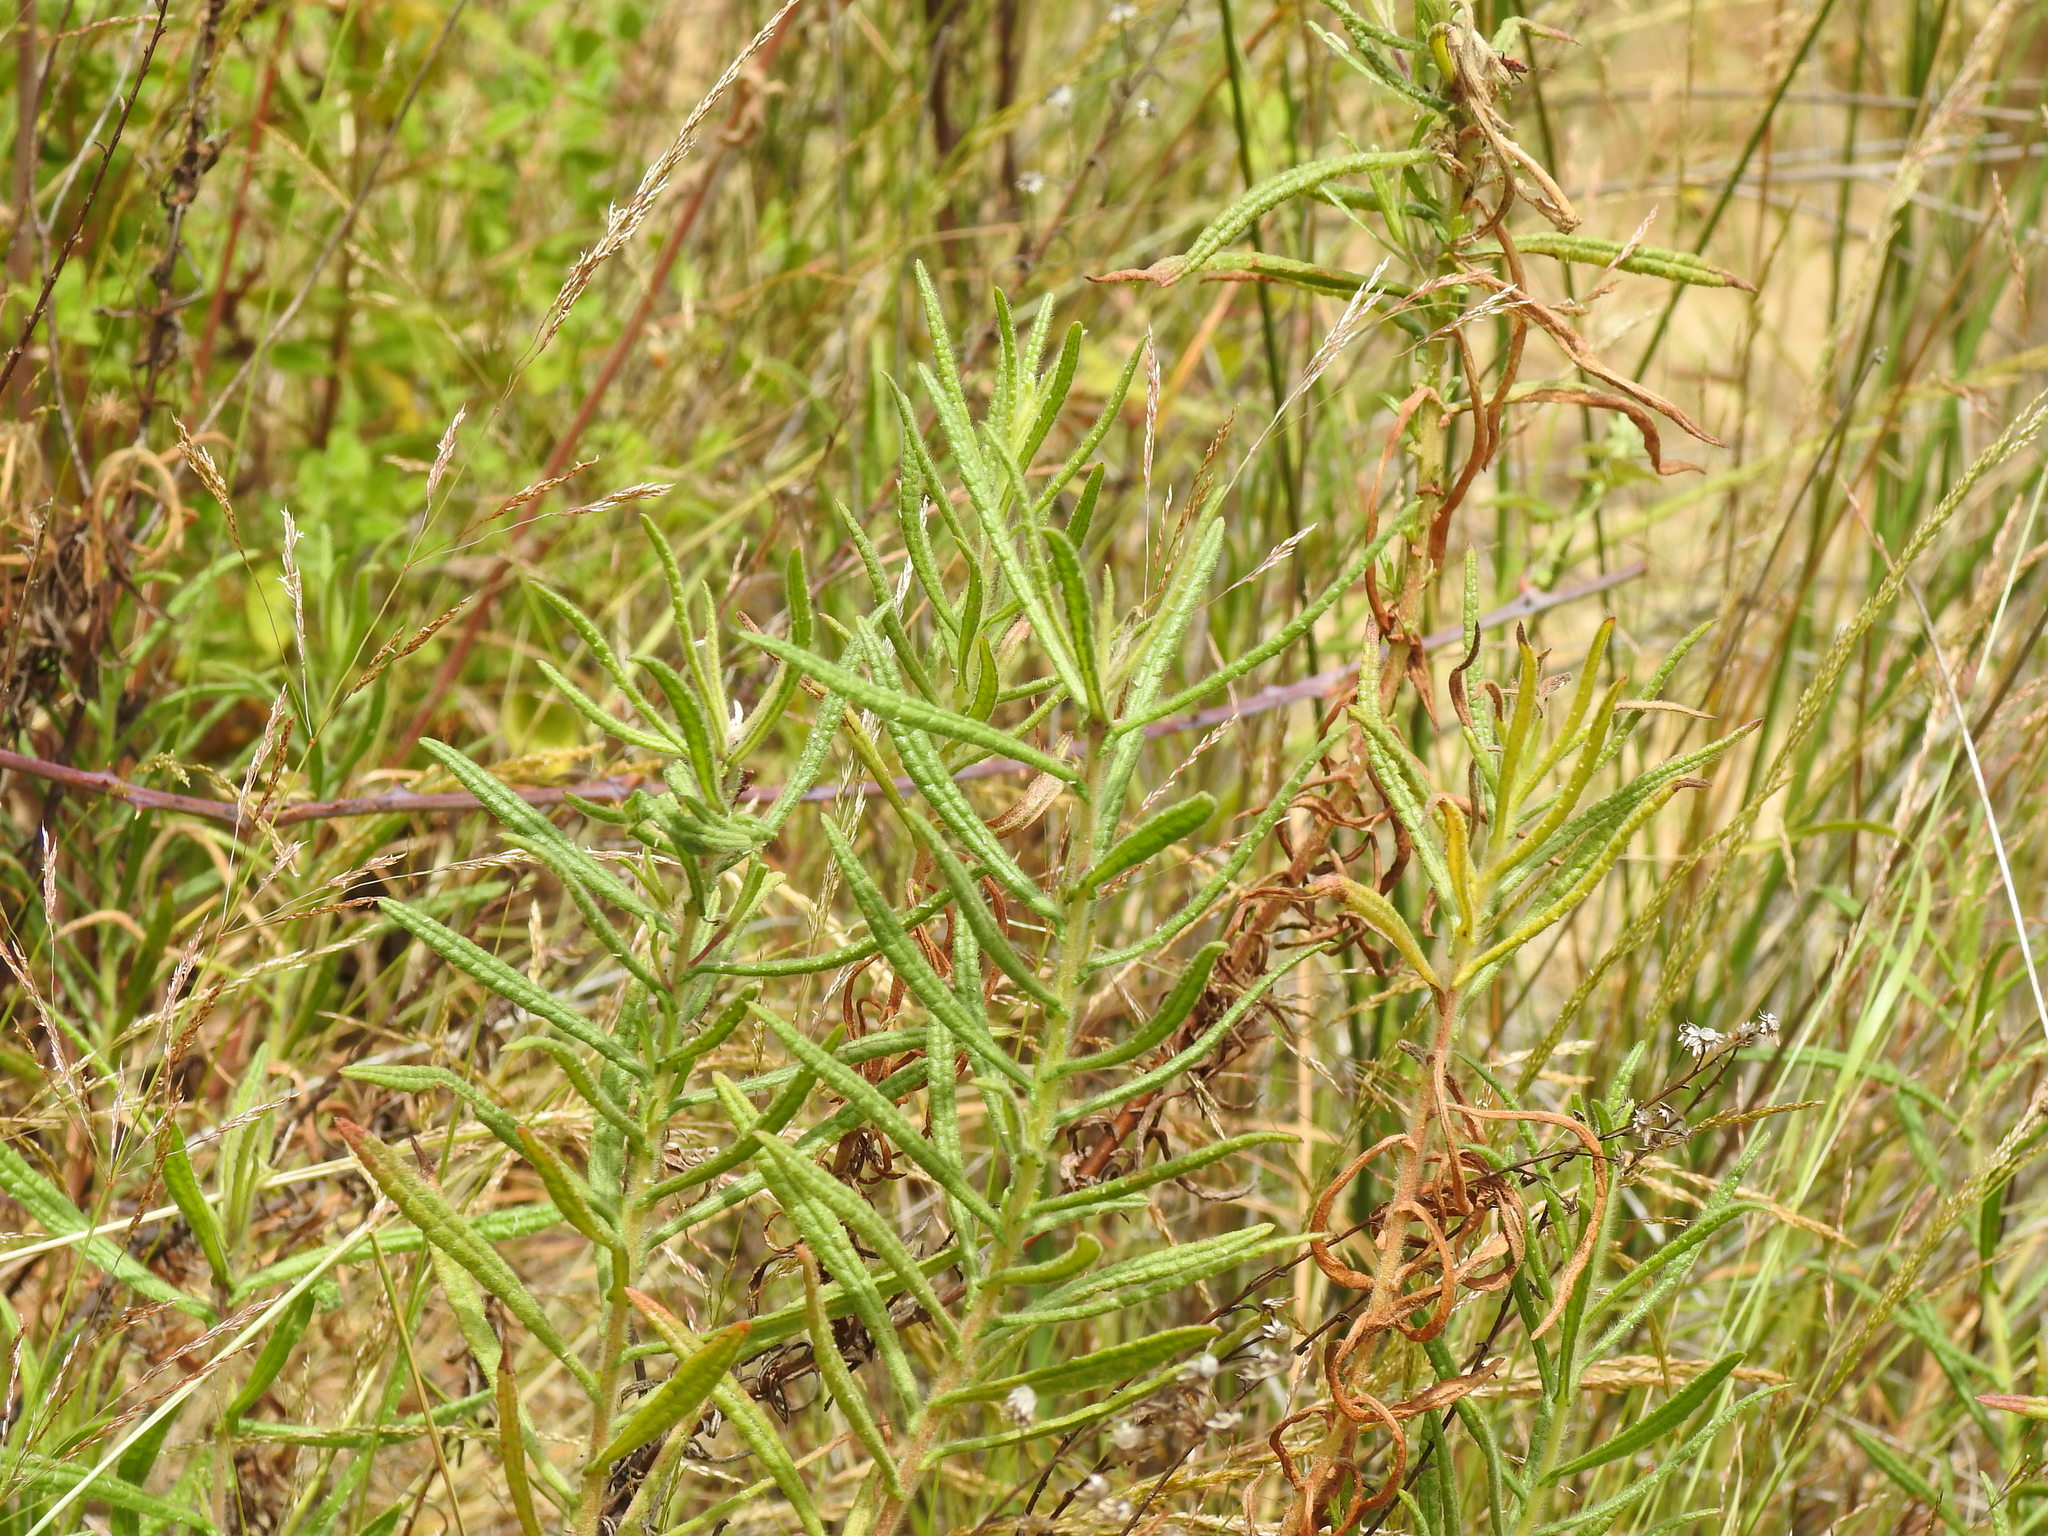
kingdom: Plantae
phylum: Tracheophyta
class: Magnoliopsida
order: Asterales
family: Asteraceae
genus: Dittrichia
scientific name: Dittrichia viscosa
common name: Woody fleabane
